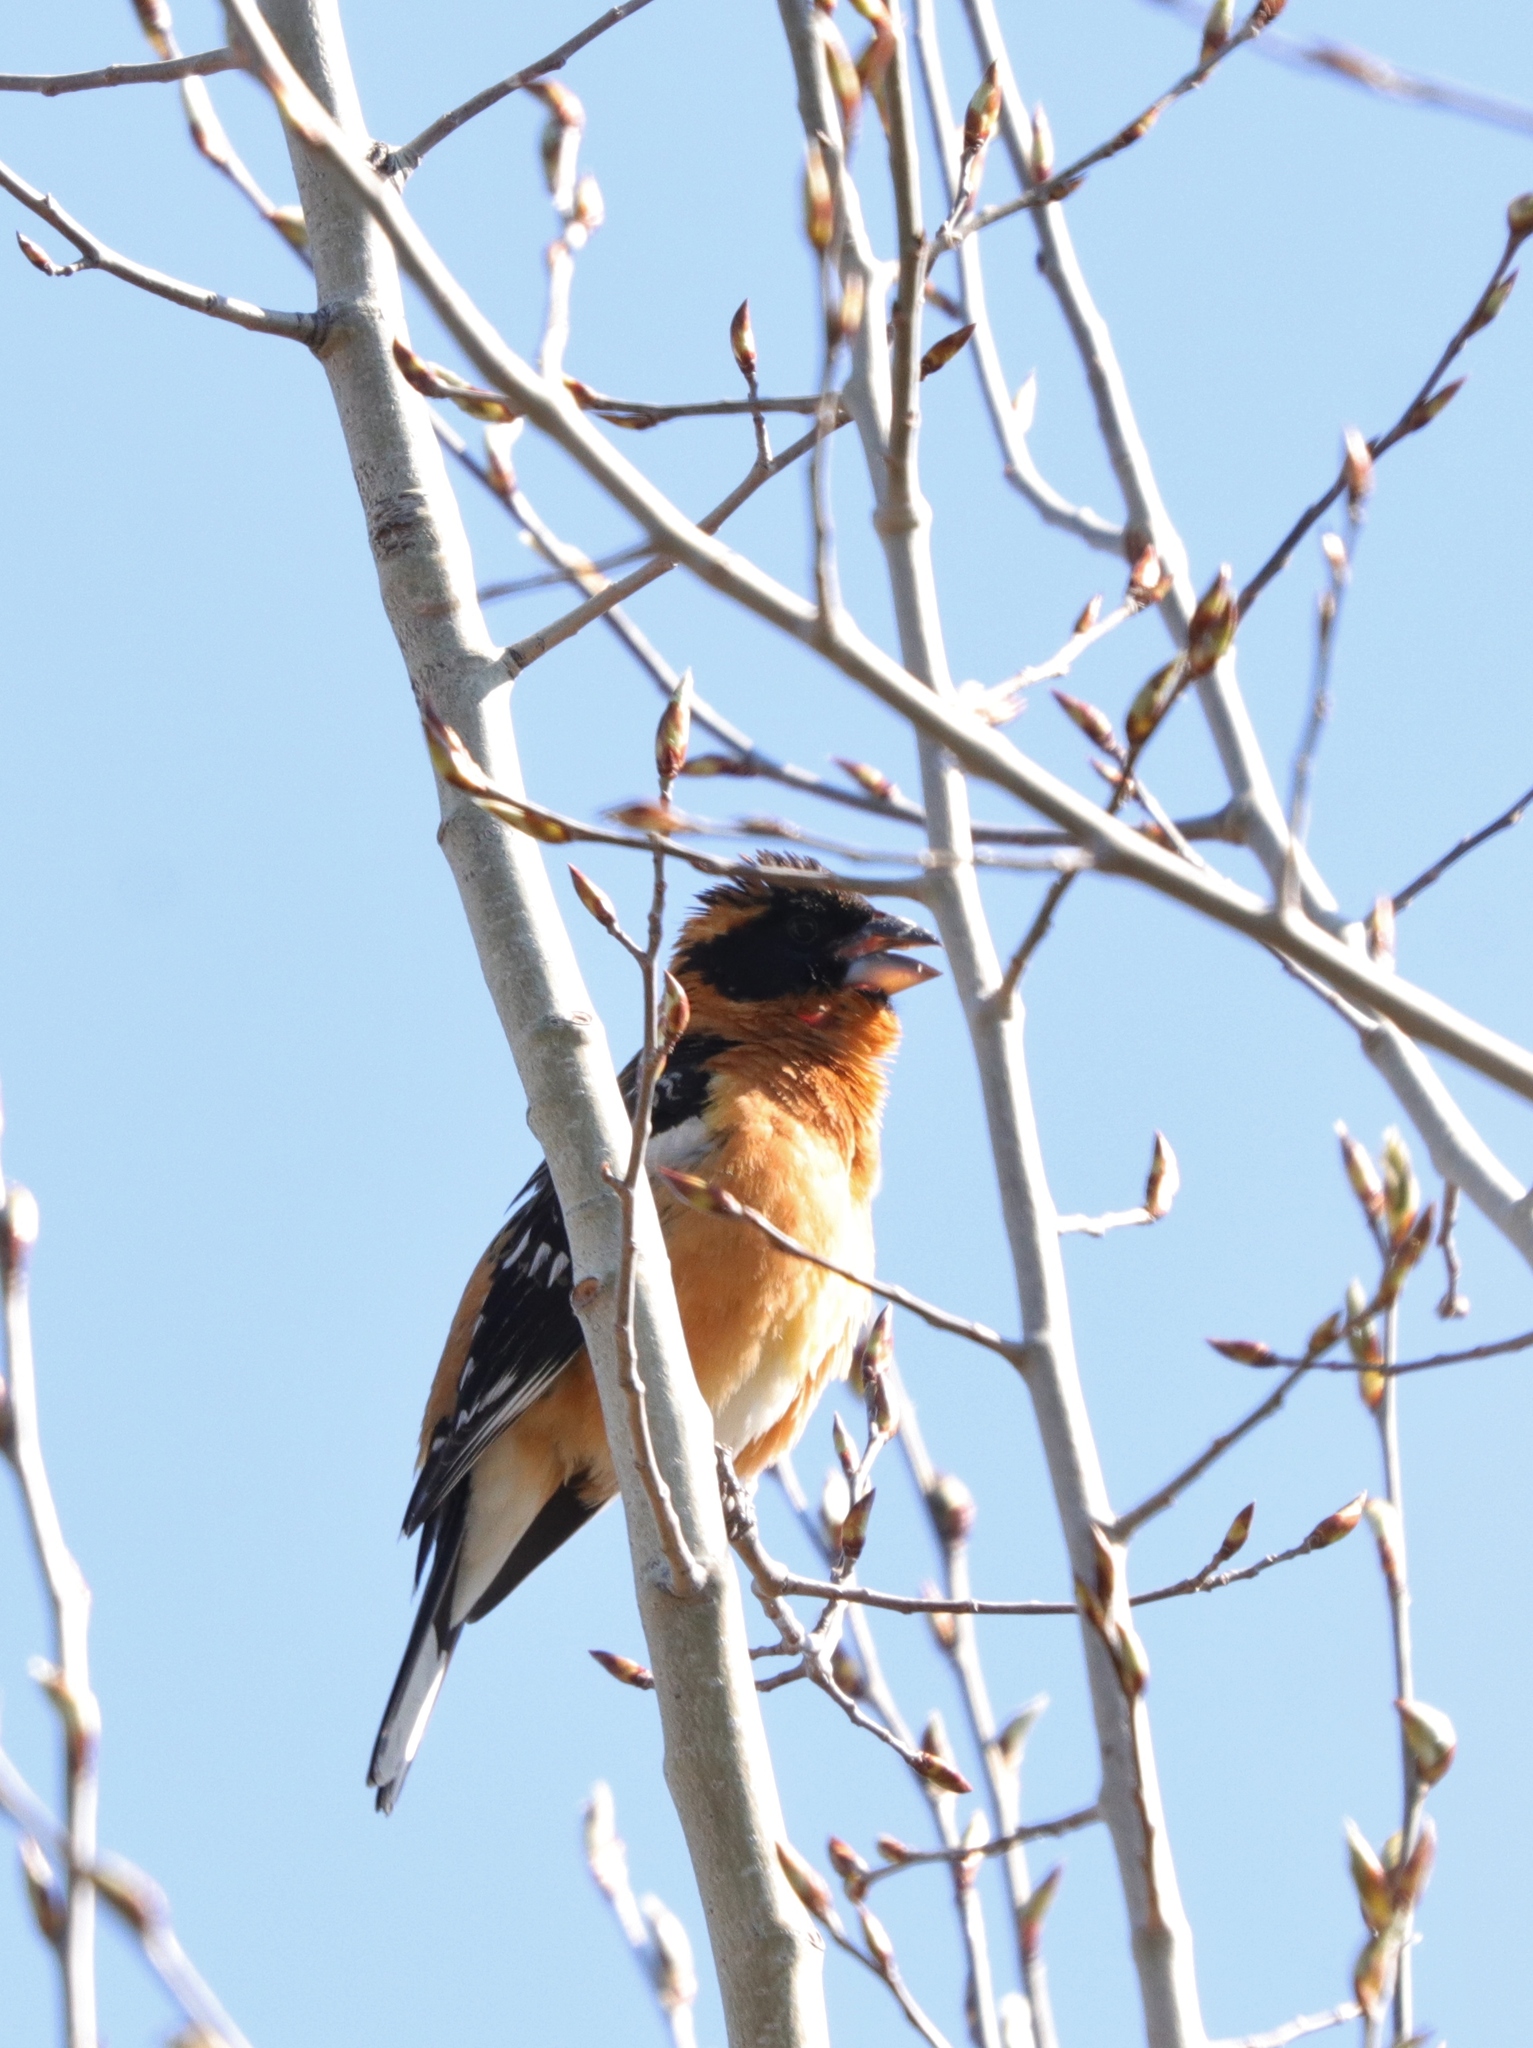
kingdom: Animalia
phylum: Chordata
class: Aves
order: Passeriformes
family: Cardinalidae
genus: Pheucticus
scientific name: Pheucticus melanocephalus
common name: Black-headed grosbeak
